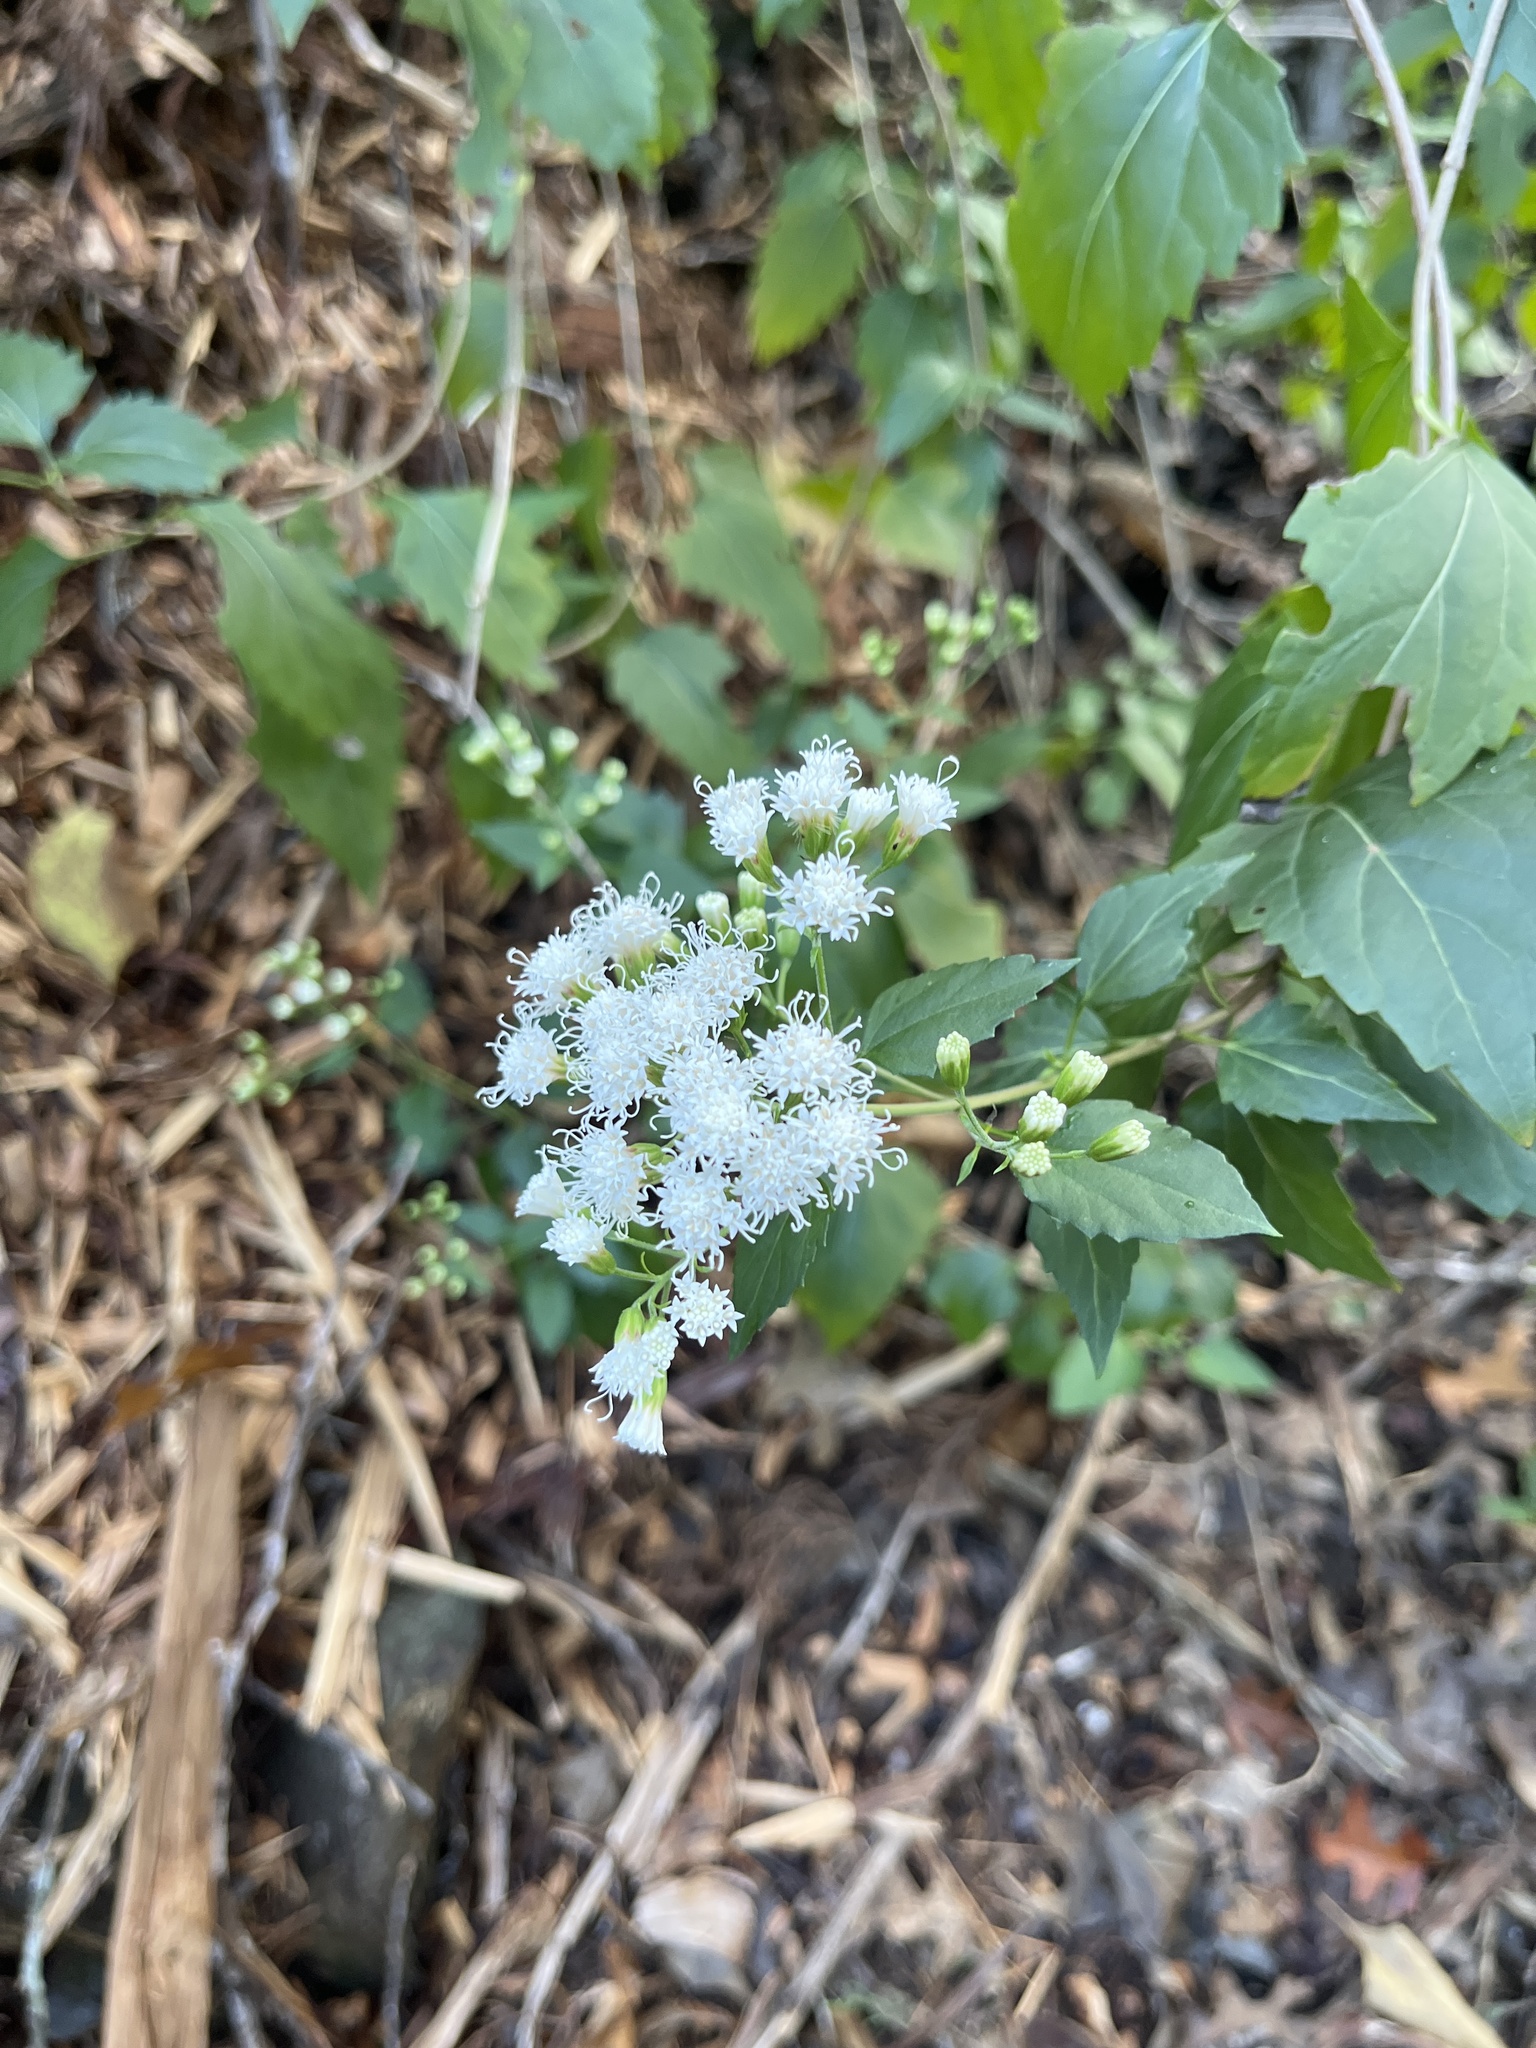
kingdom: Plantae
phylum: Tracheophyta
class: Magnoliopsida
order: Asterales
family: Asteraceae
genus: Ageratina
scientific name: Ageratina havanensis
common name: Havana snakeroot
